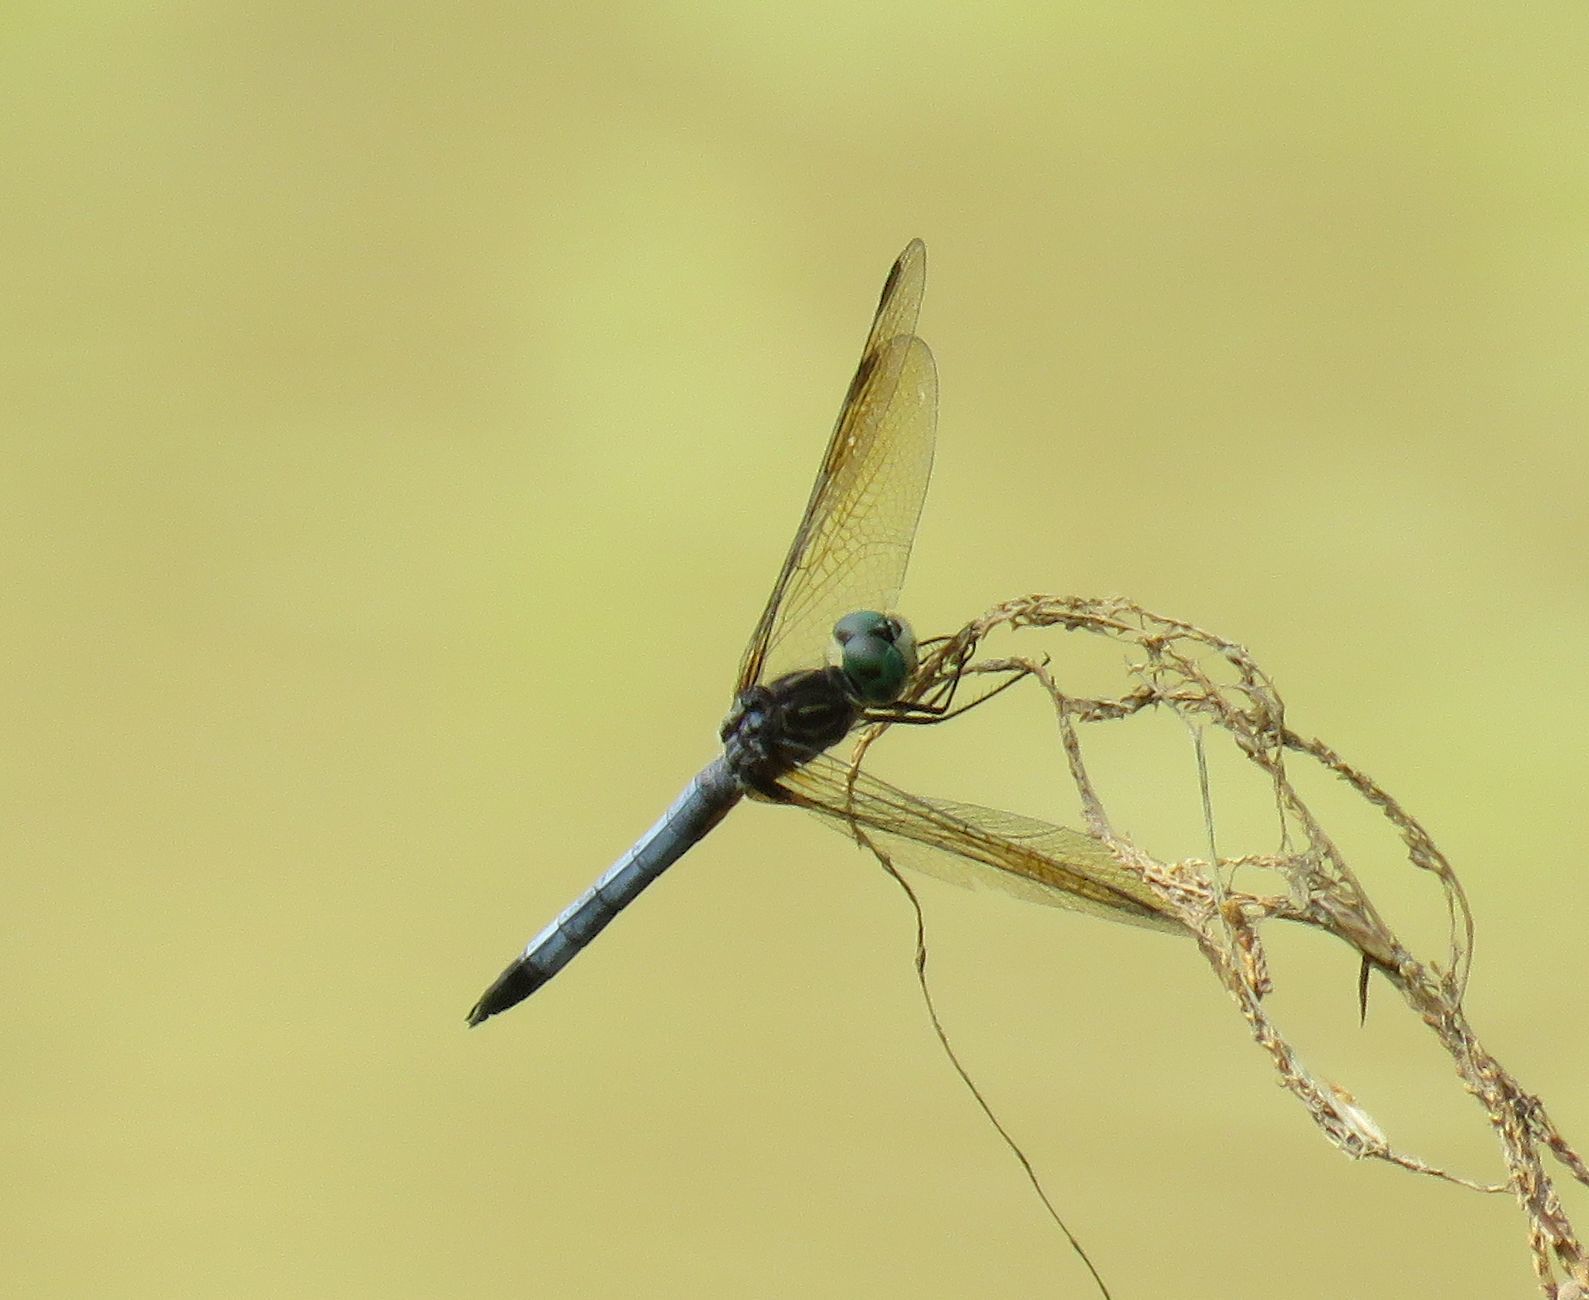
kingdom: Animalia
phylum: Arthropoda
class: Insecta
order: Odonata
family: Libellulidae
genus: Pachydiplax
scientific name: Pachydiplax longipennis
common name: Blue dasher
